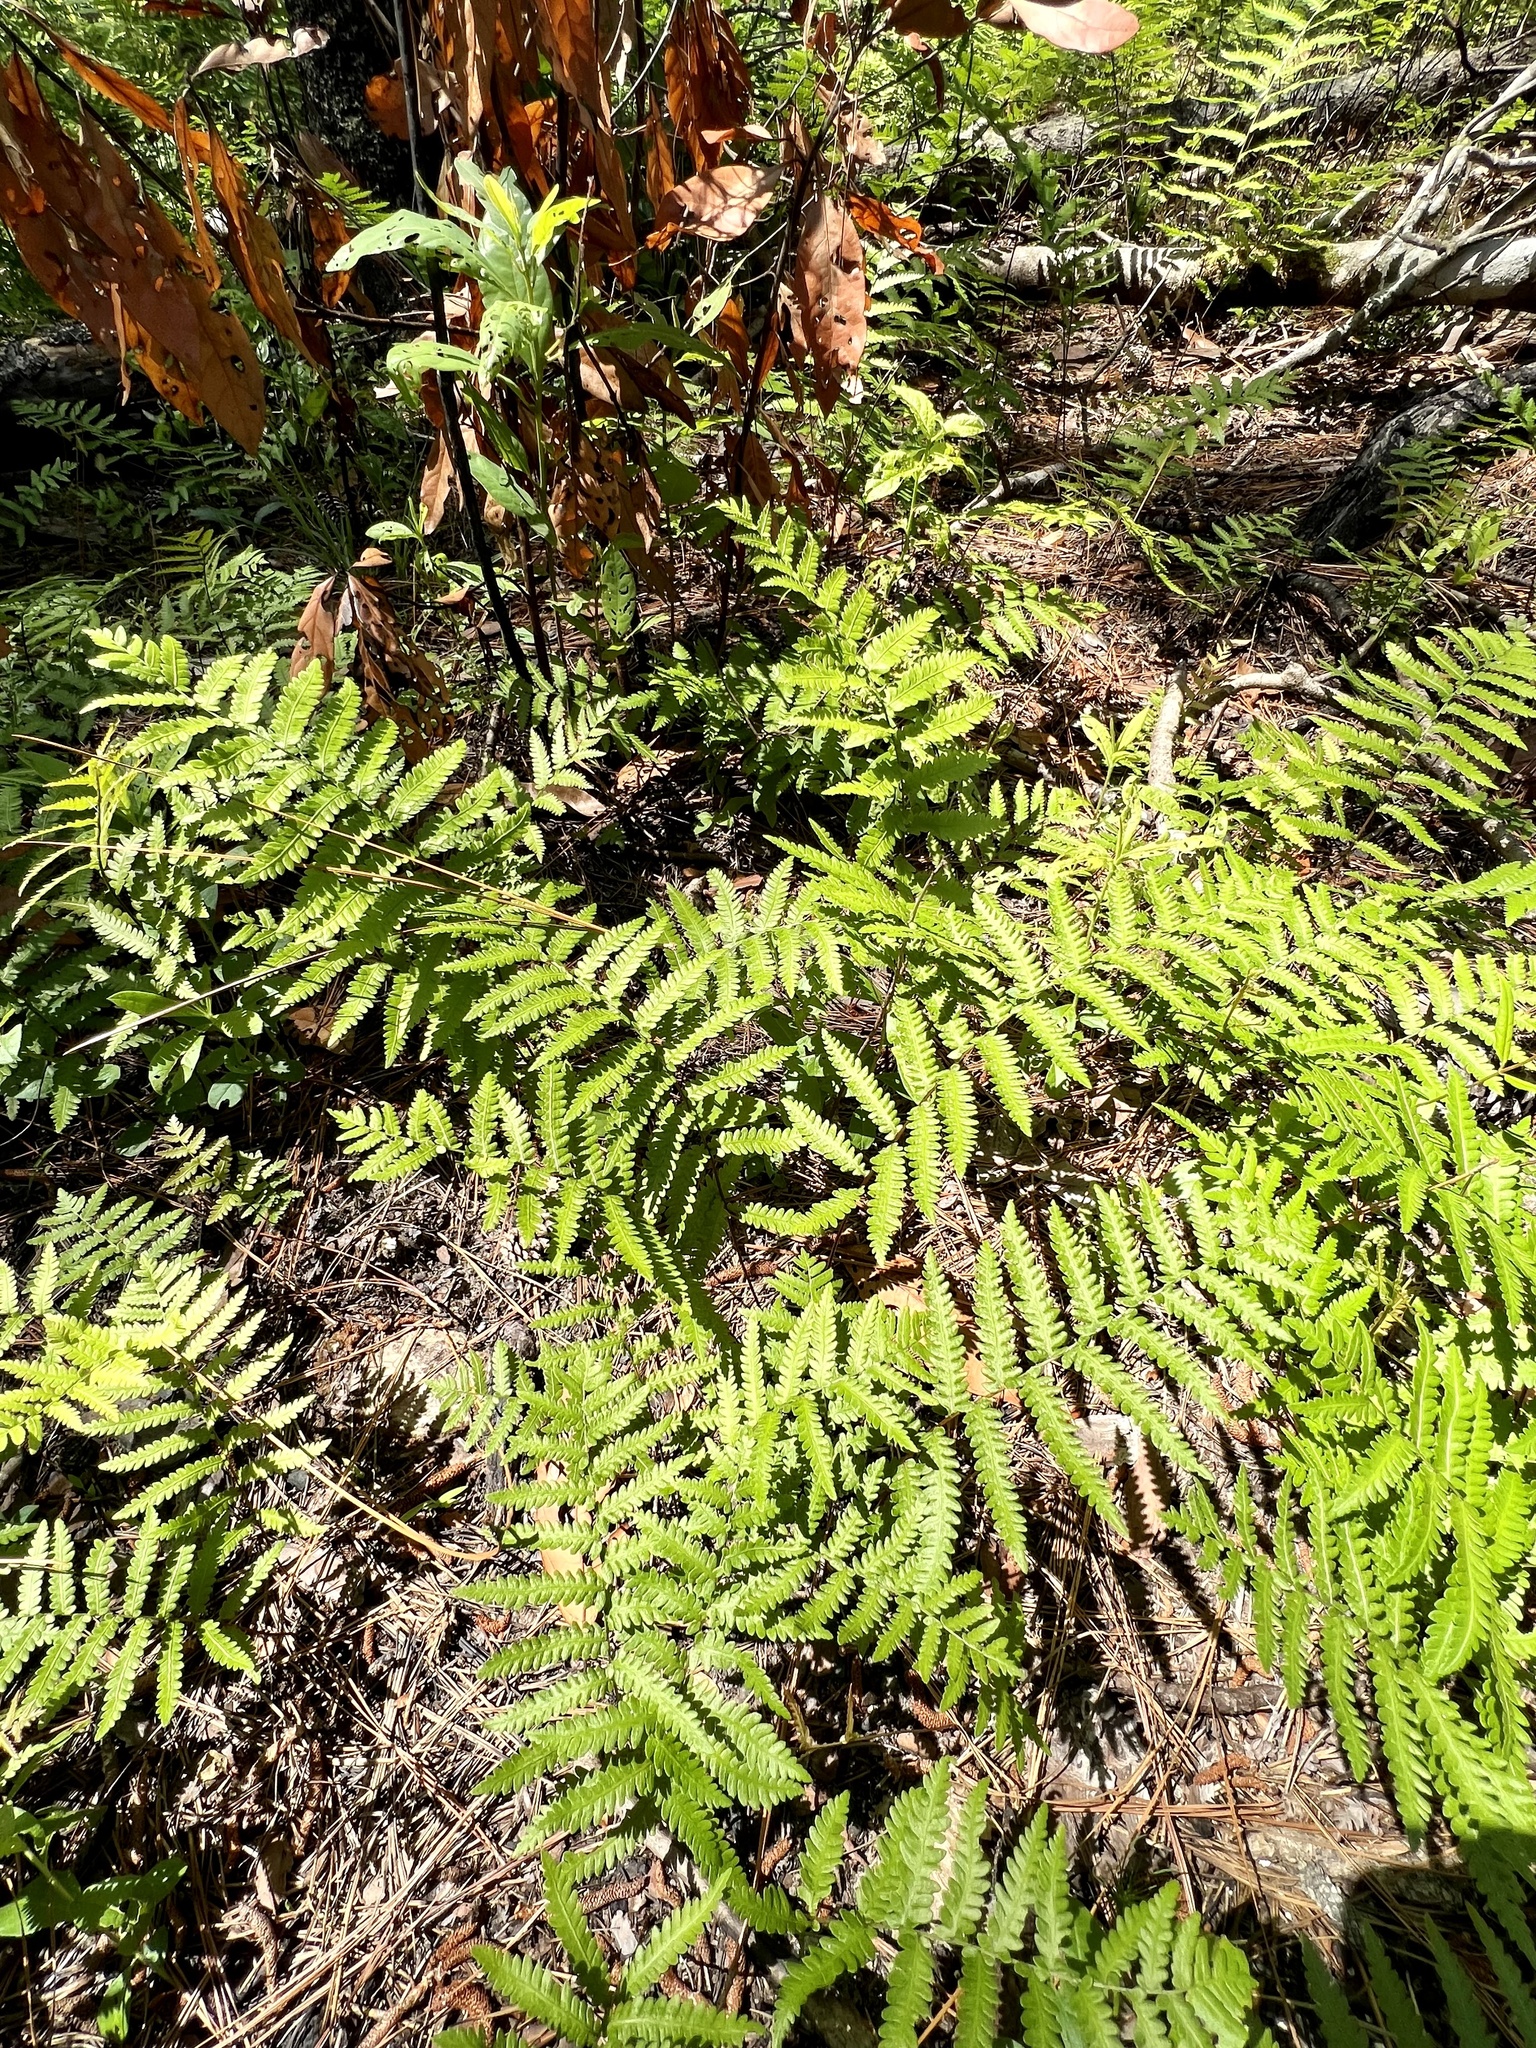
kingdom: Plantae
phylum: Tracheophyta
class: Polypodiopsida
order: Polypodiales
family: Blechnaceae
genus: Anchistea
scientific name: Anchistea virginica
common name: Virginia chain fern
